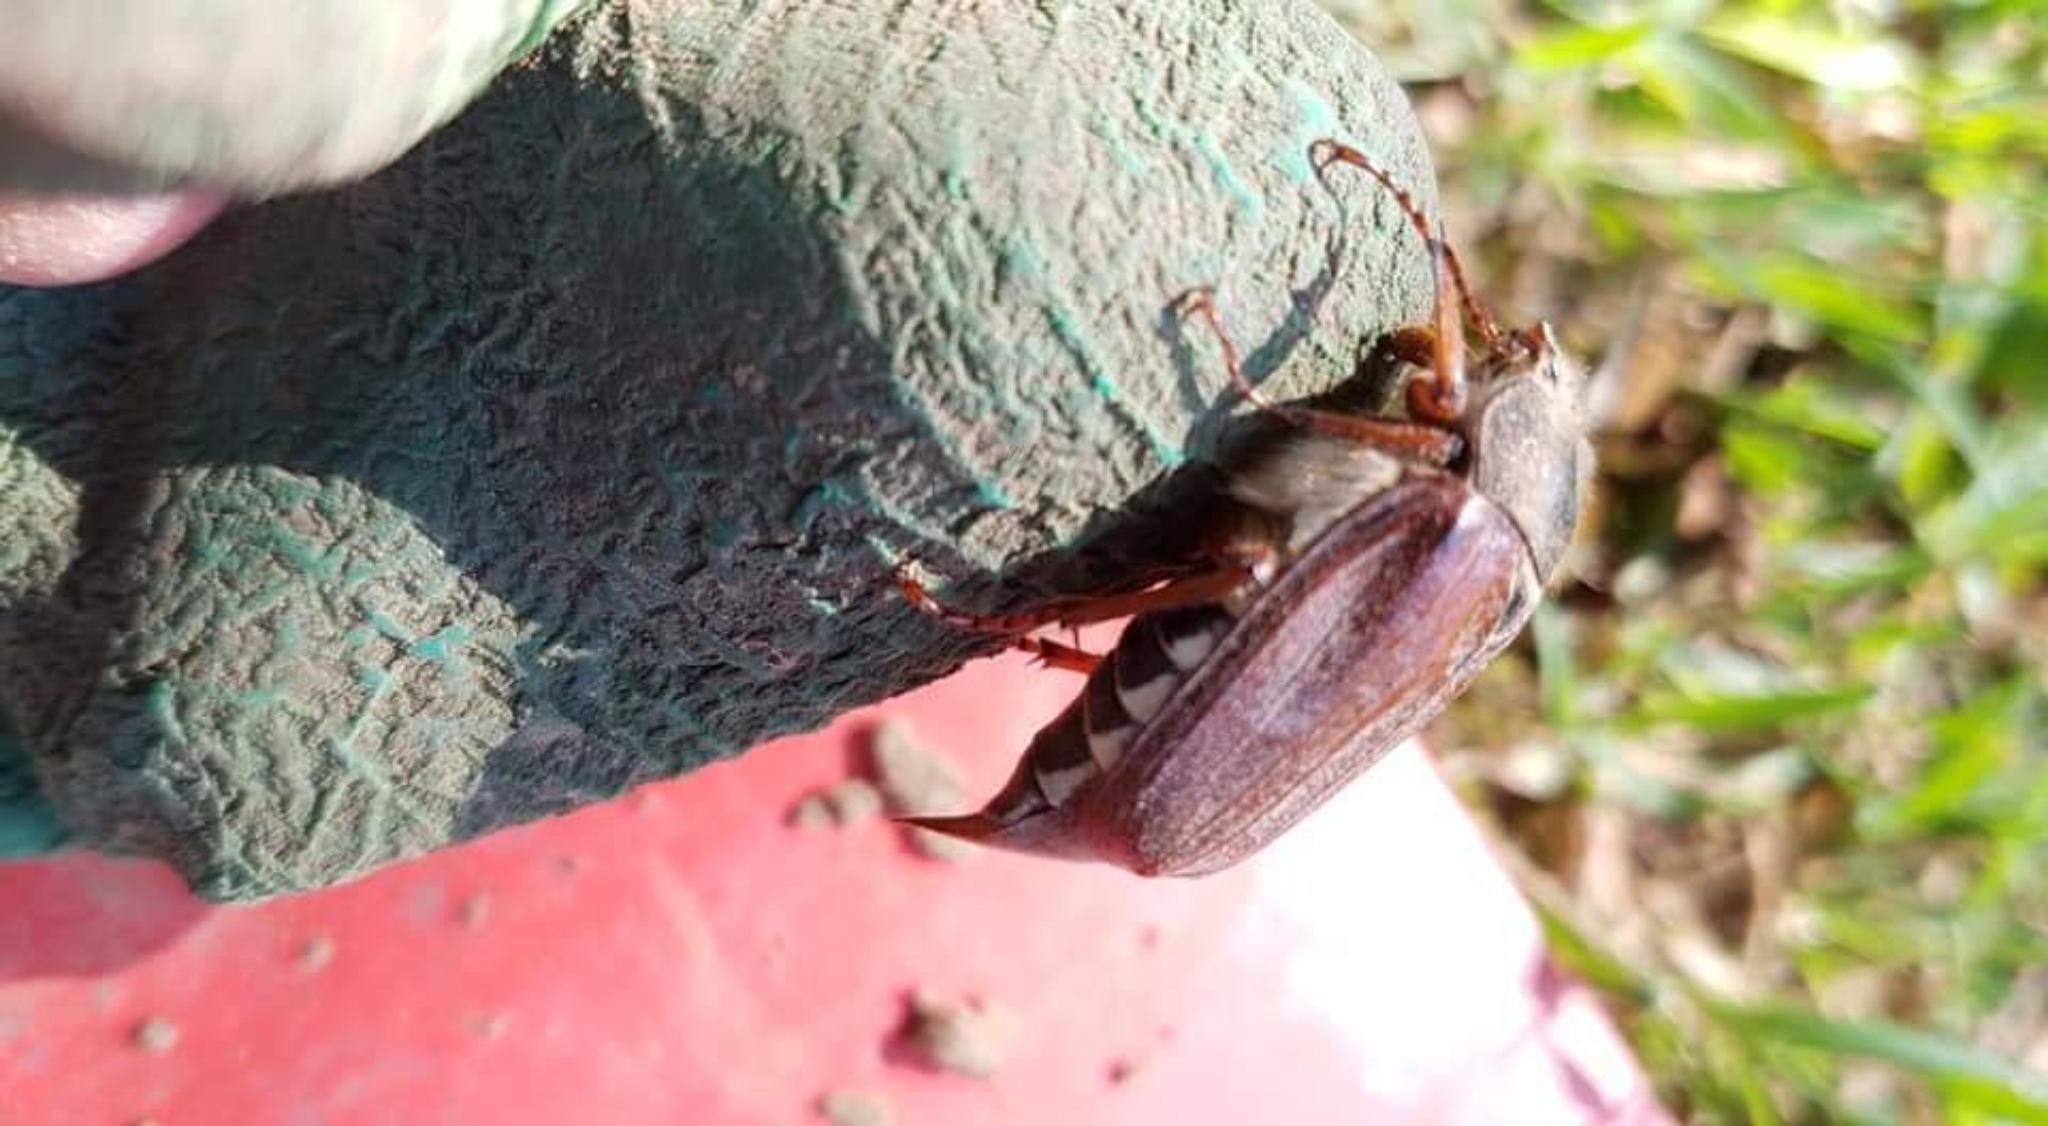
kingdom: Animalia
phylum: Arthropoda
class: Insecta
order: Coleoptera
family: Scarabaeidae
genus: Melolontha
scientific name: Melolontha melolontha
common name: Cockchafer maybeetle
